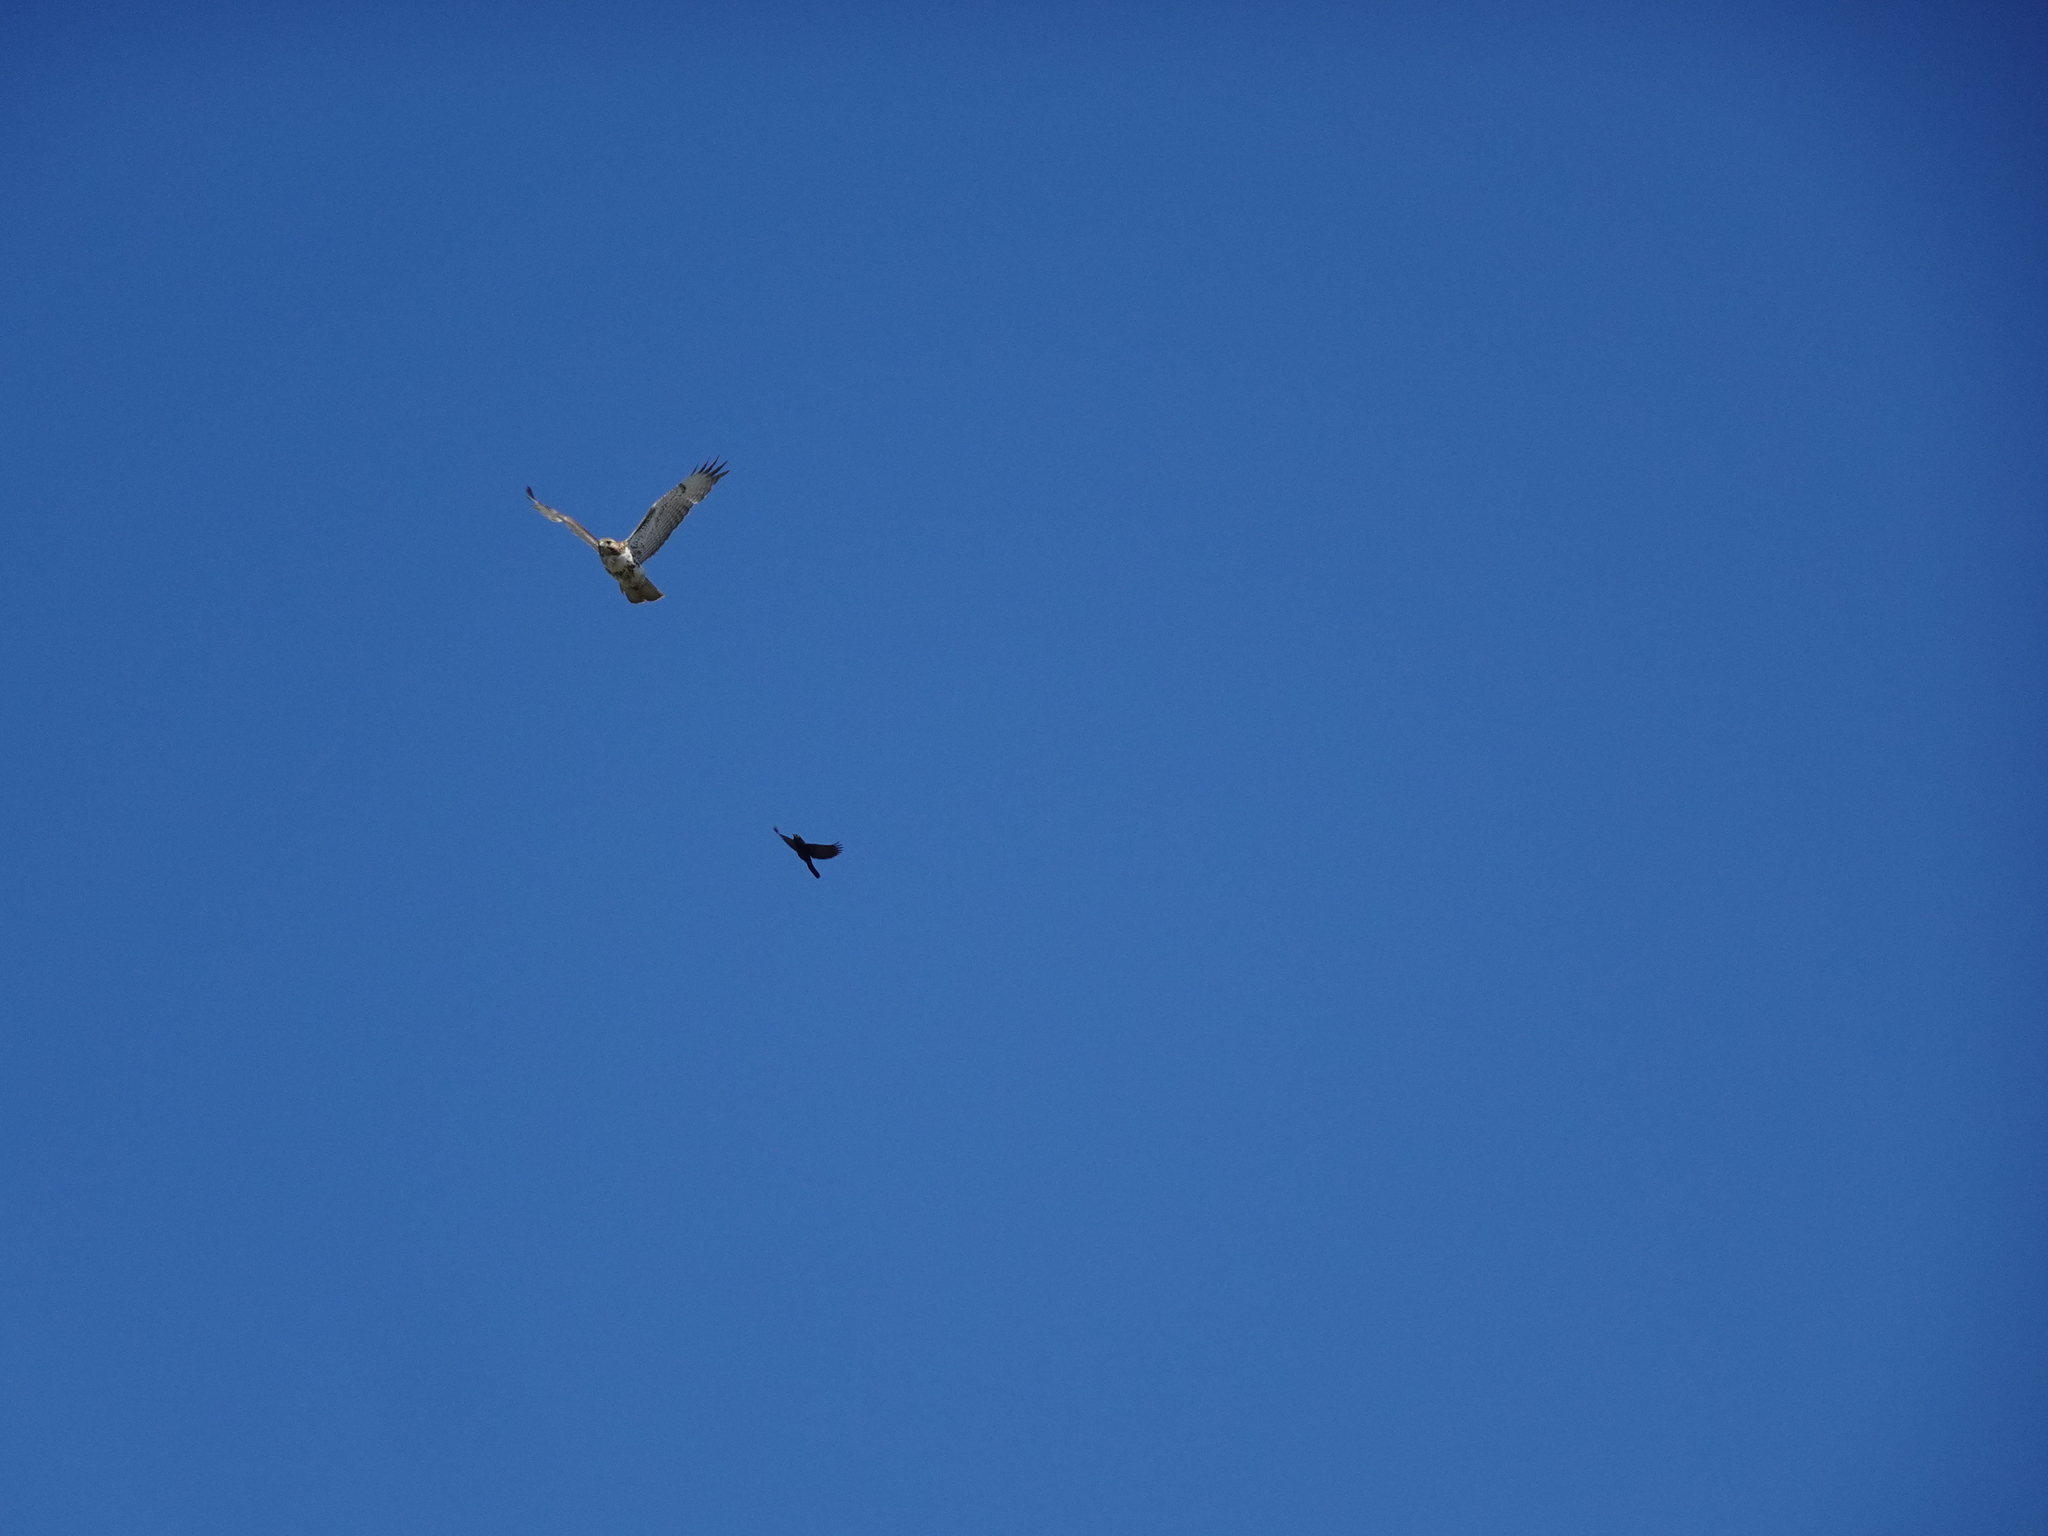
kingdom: Animalia
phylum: Chordata
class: Aves
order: Accipitriformes
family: Accipitridae
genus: Buteo
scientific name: Buteo jamaicensis
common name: Red-tailed hawk
